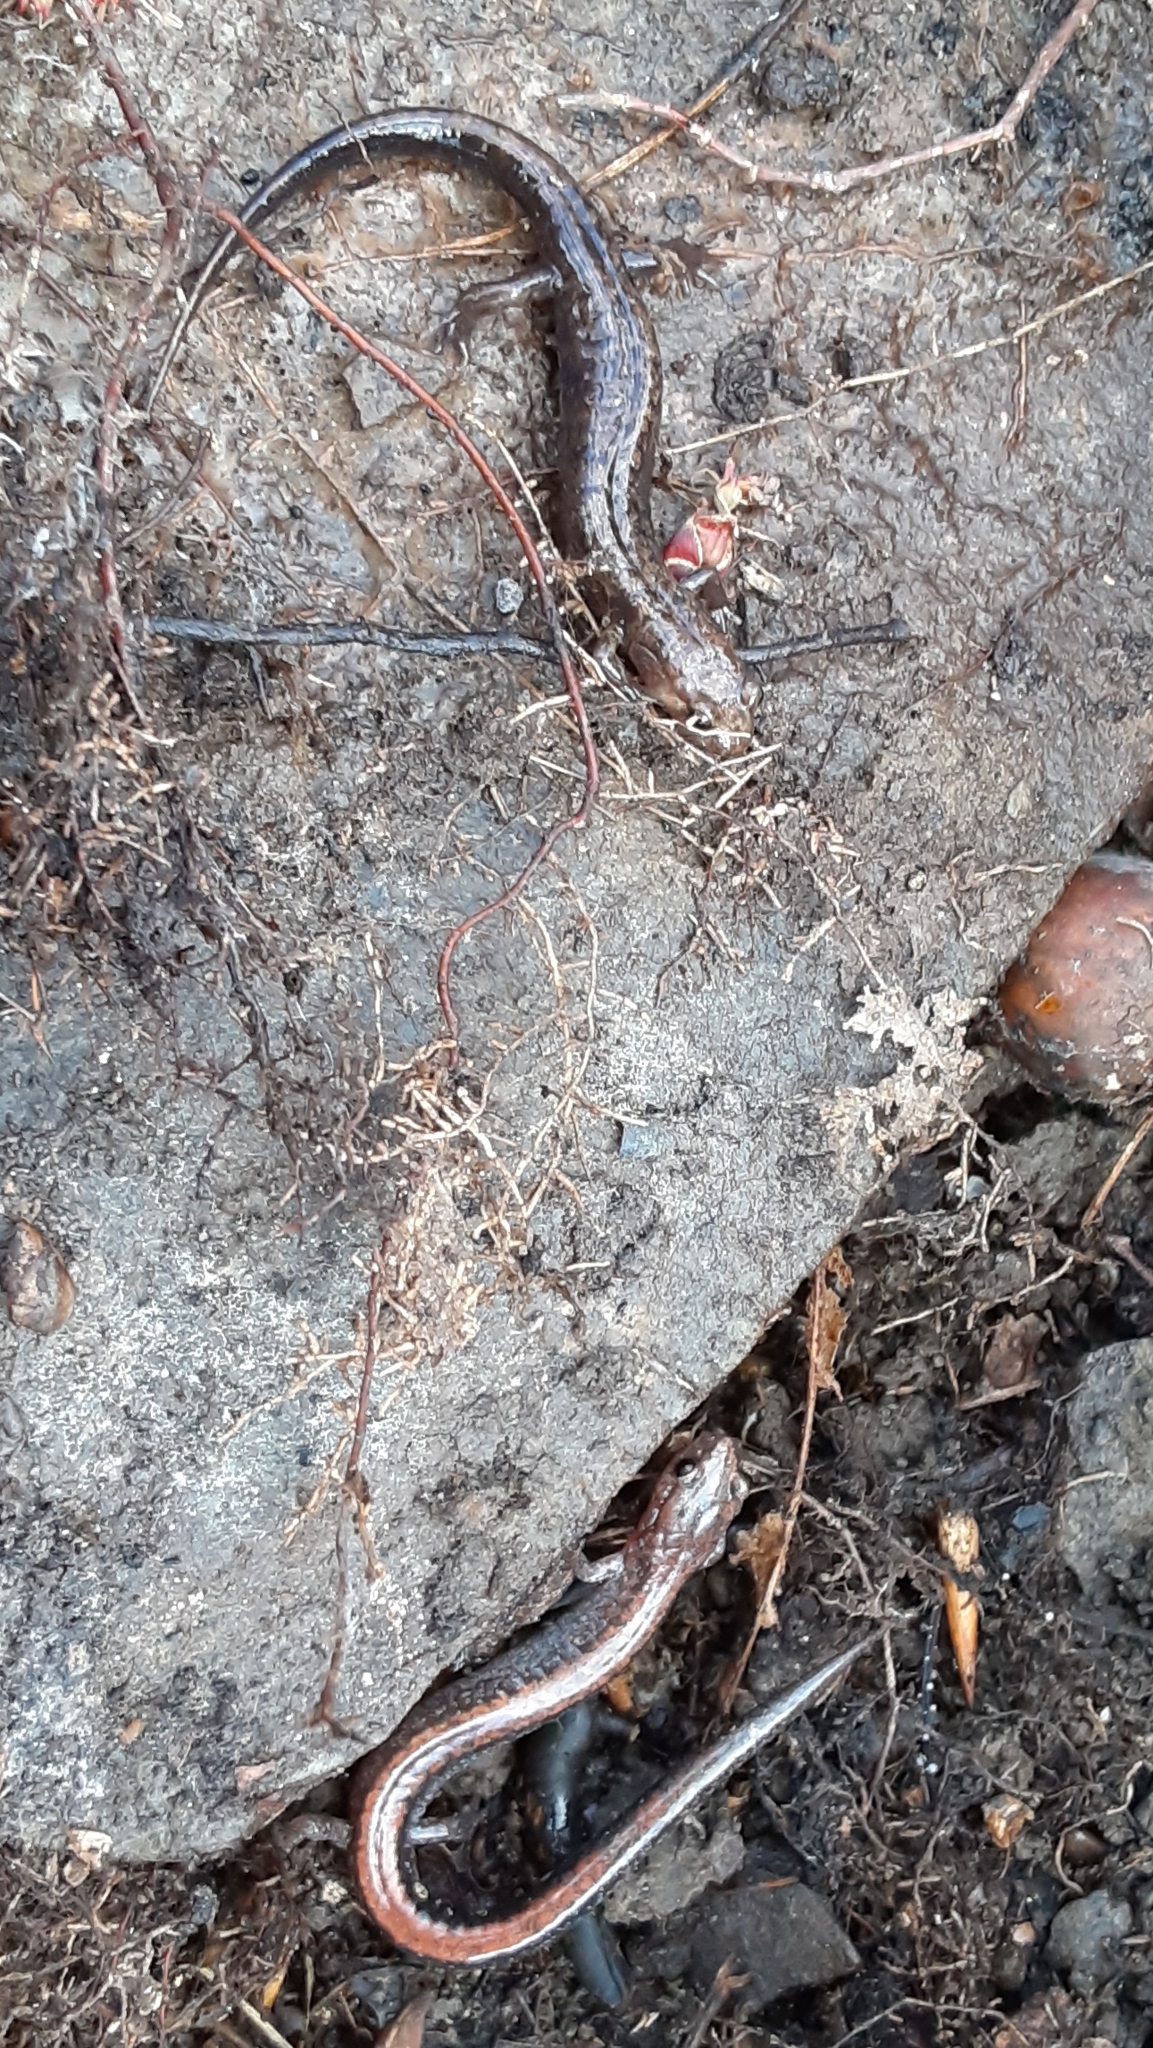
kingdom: Animalia
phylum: Chordata
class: Amphibia
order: Caudata
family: Plethodontidae
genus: Desmognathus
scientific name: Desmognathus ochrophaeus
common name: Allegheny mountain dusky salamander
